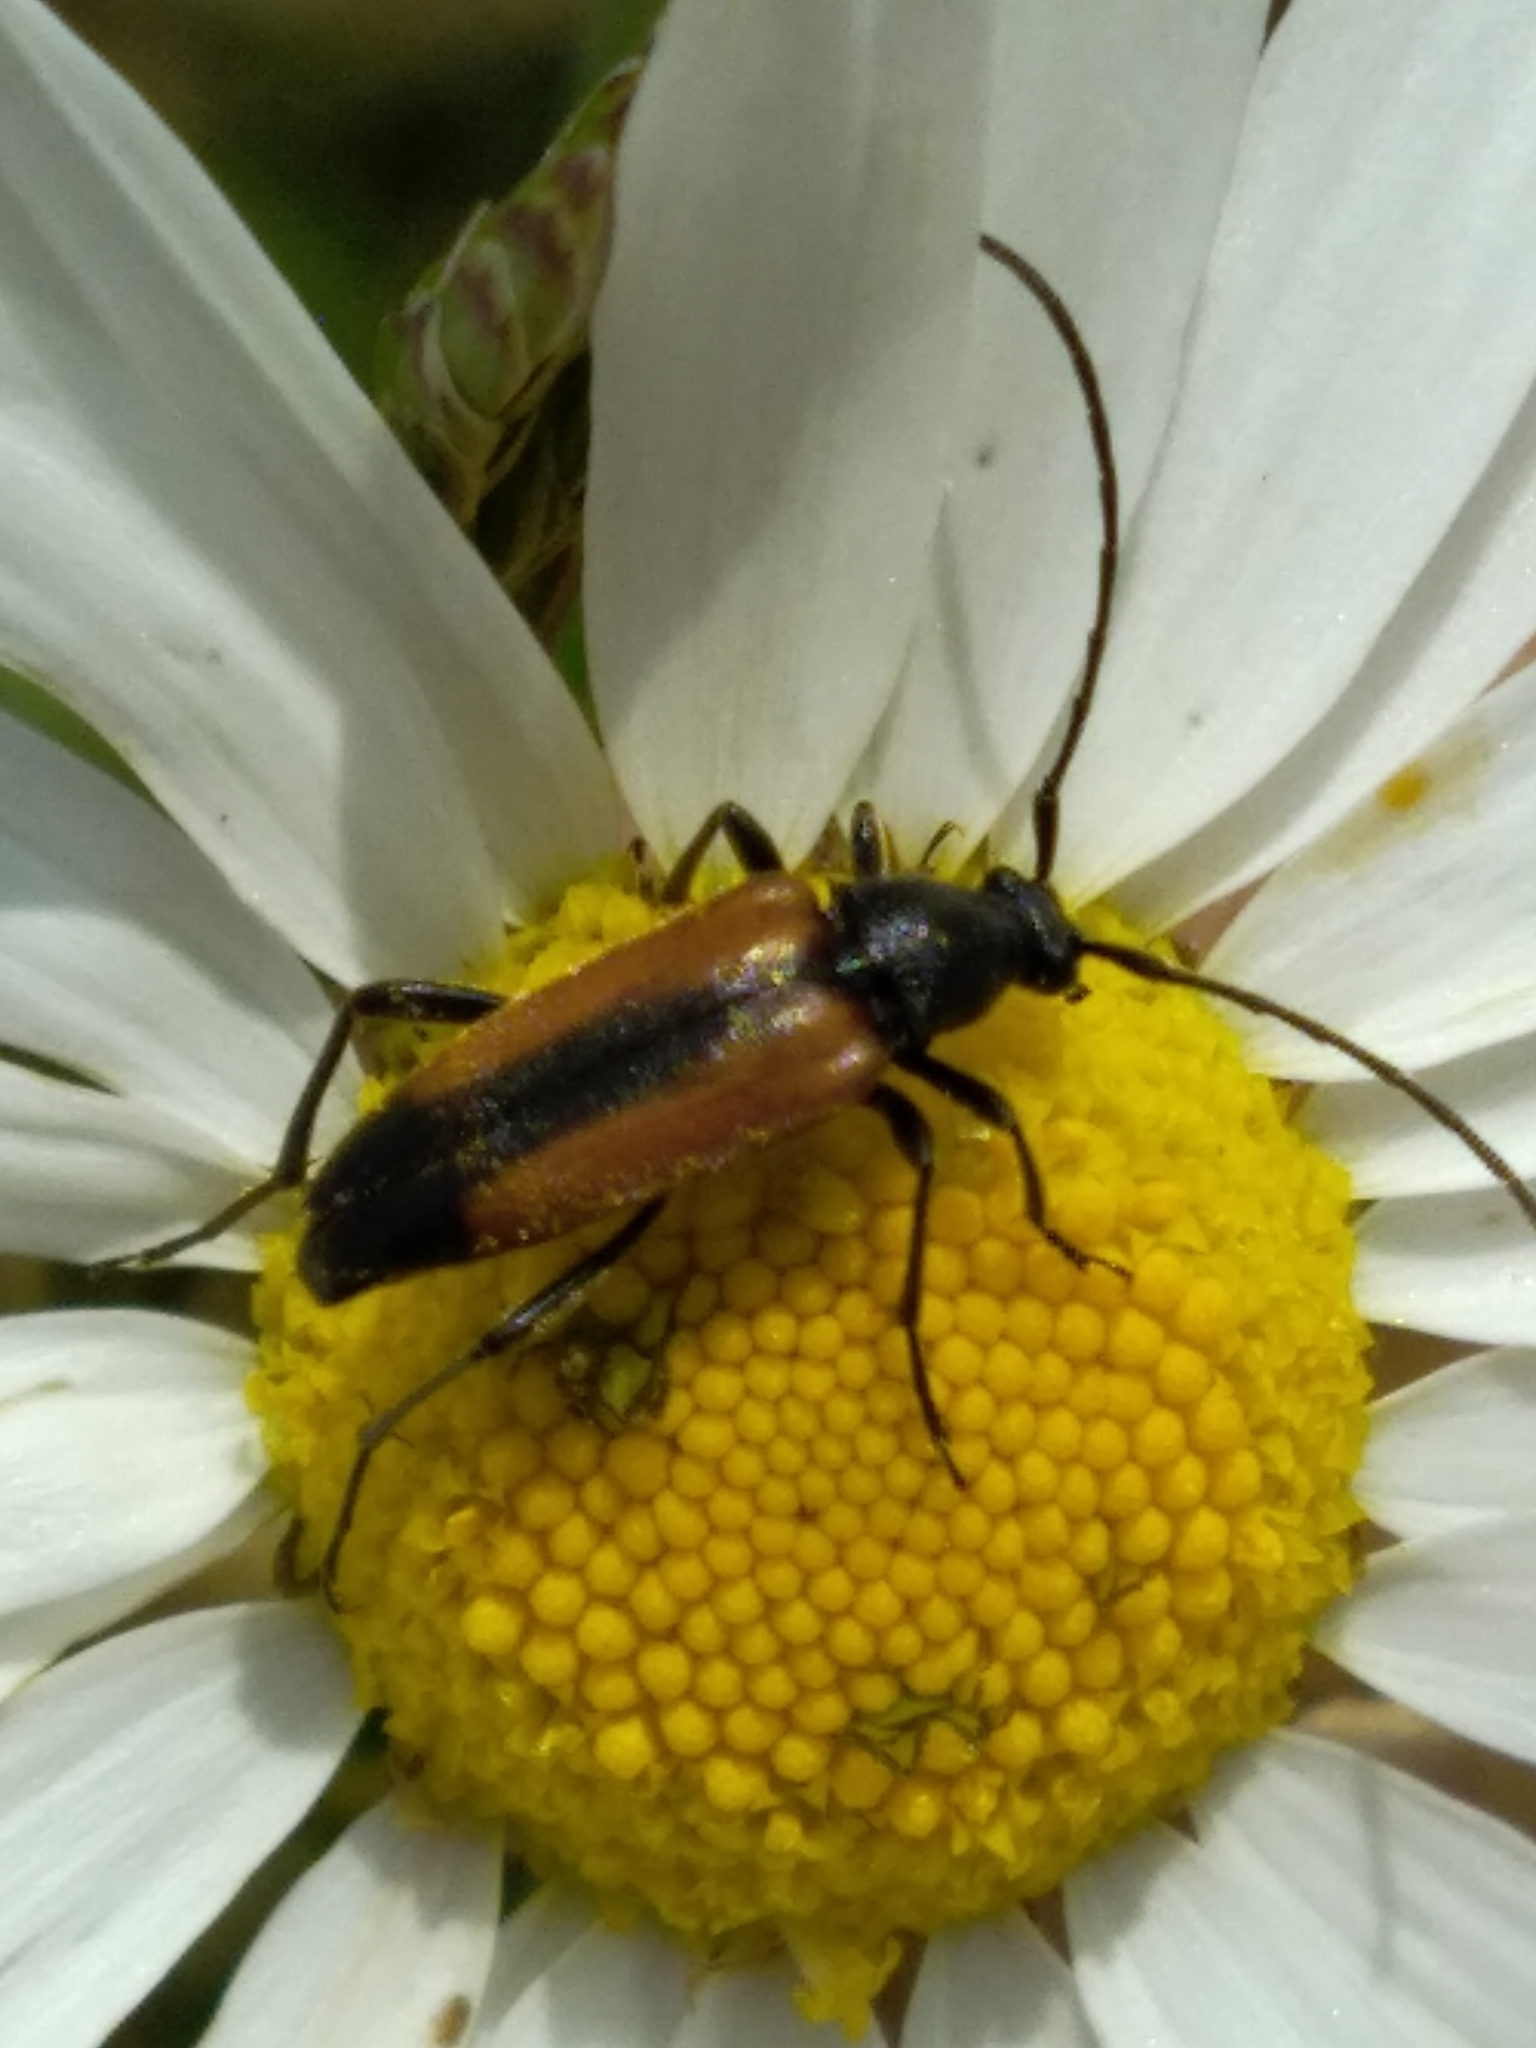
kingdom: Animalia
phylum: Arthropoda
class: Insecta
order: Coleoptera
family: Cerambycidae
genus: Stenurella
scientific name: Stenurella melanura
